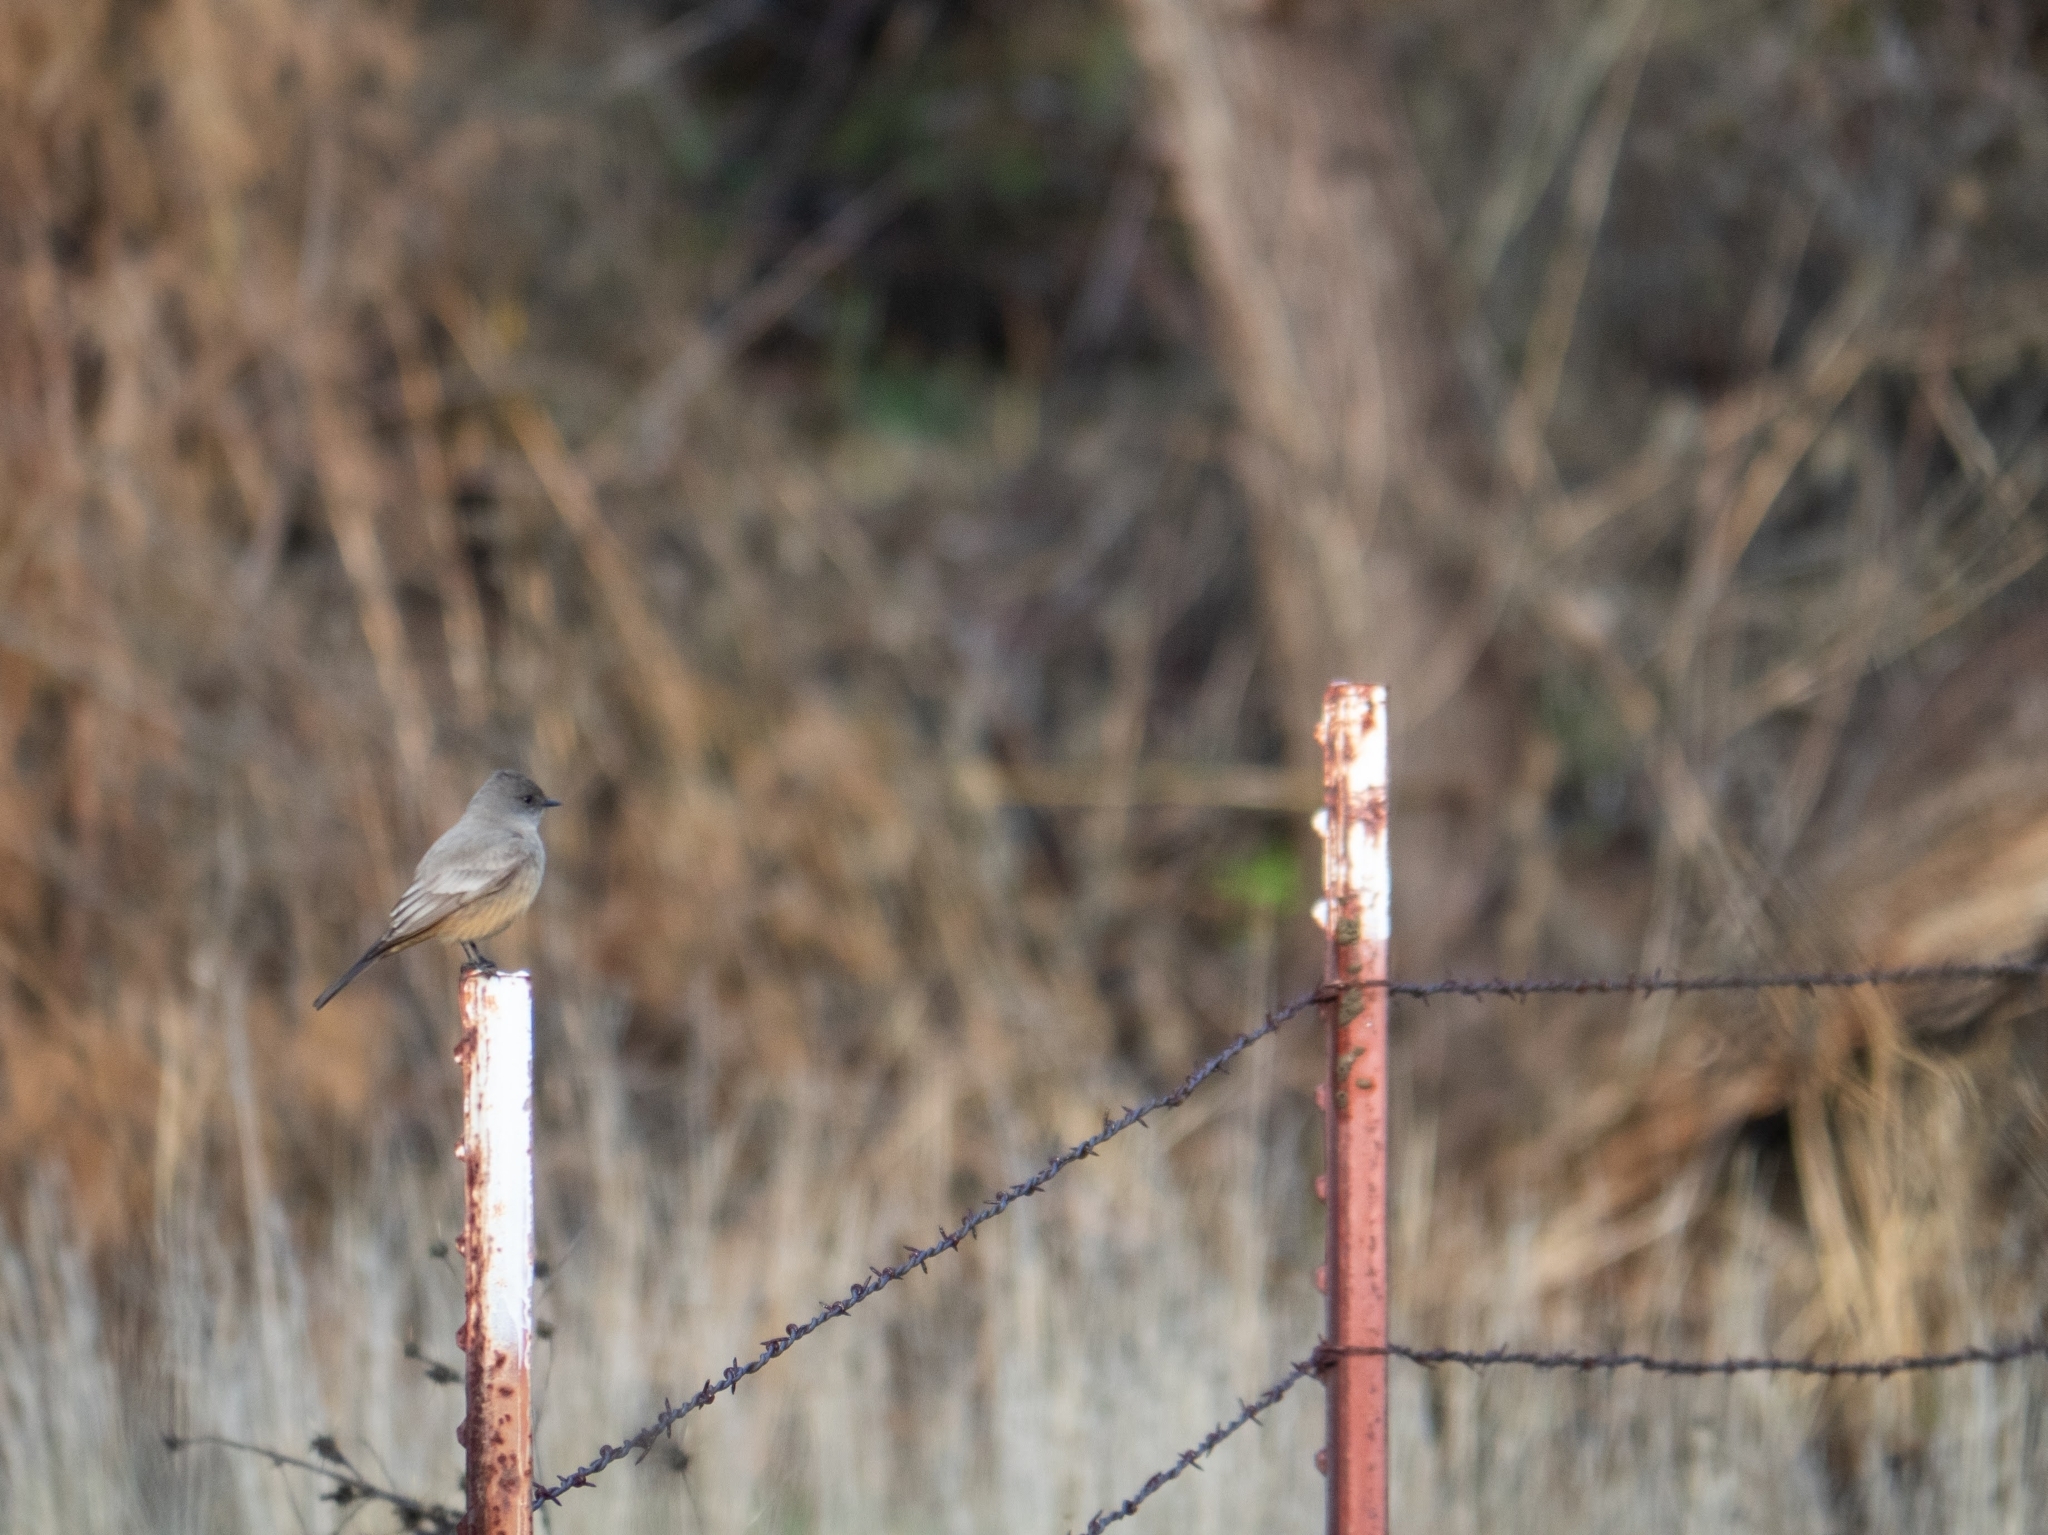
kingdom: Animalia
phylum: Chordata
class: Aves
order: Passeriformes
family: Tyrannidae
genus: Sayornis
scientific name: Sayornis saya
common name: Say's phoebe
